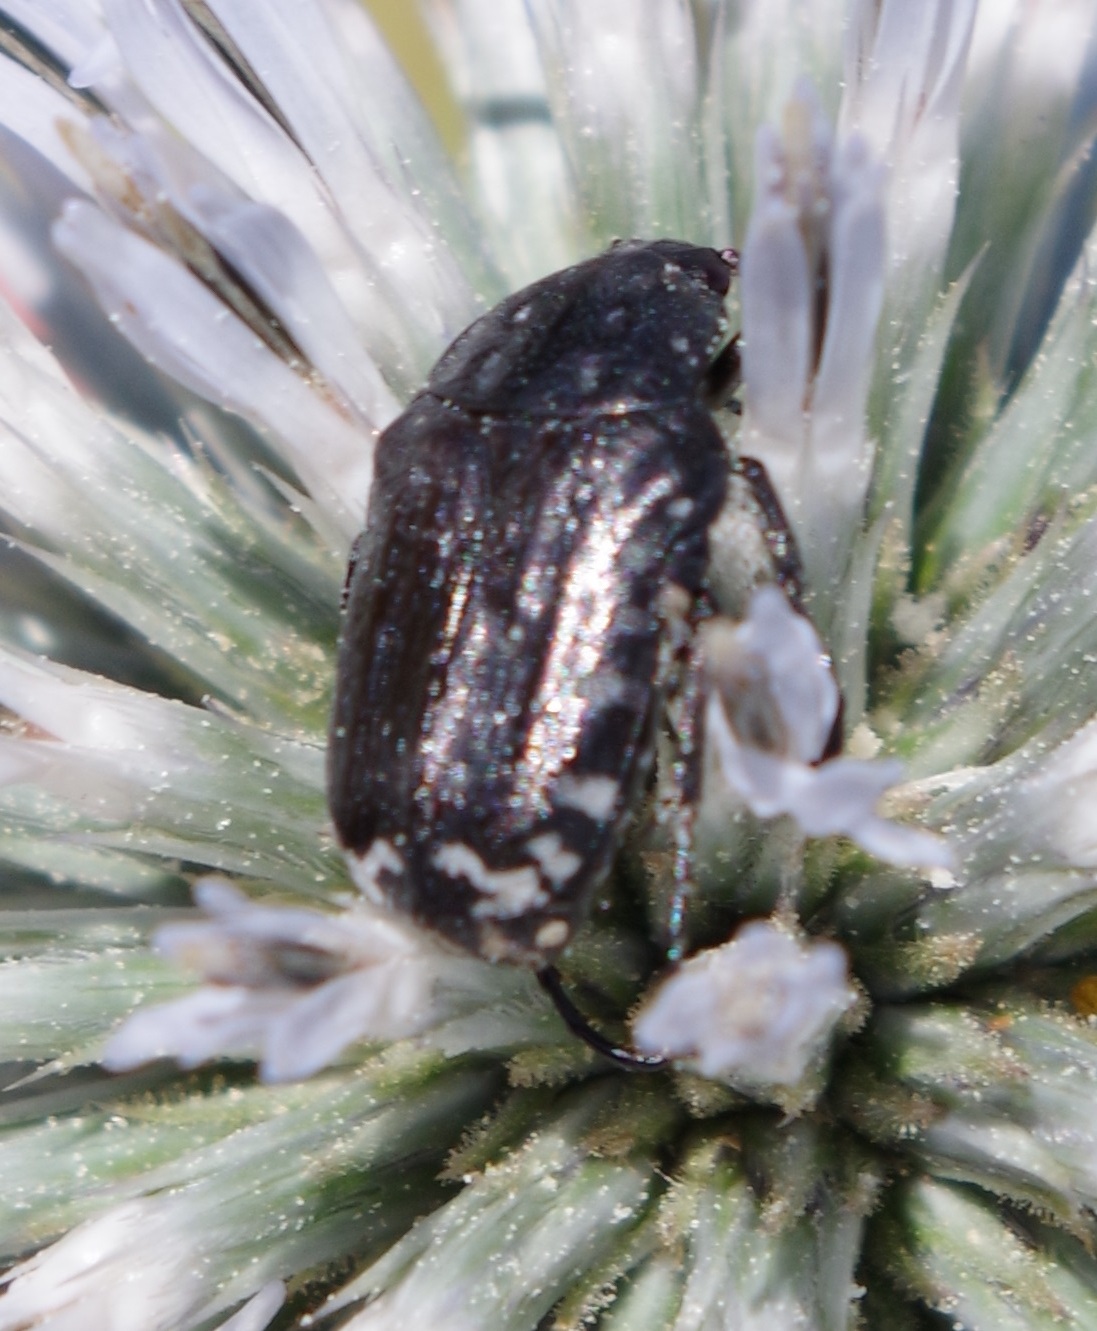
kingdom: Animalia
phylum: Arthropoda
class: Insecta
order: Coleoptera
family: Scarabaeidae
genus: Oxythyrea
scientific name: Oxythyrea funesta
